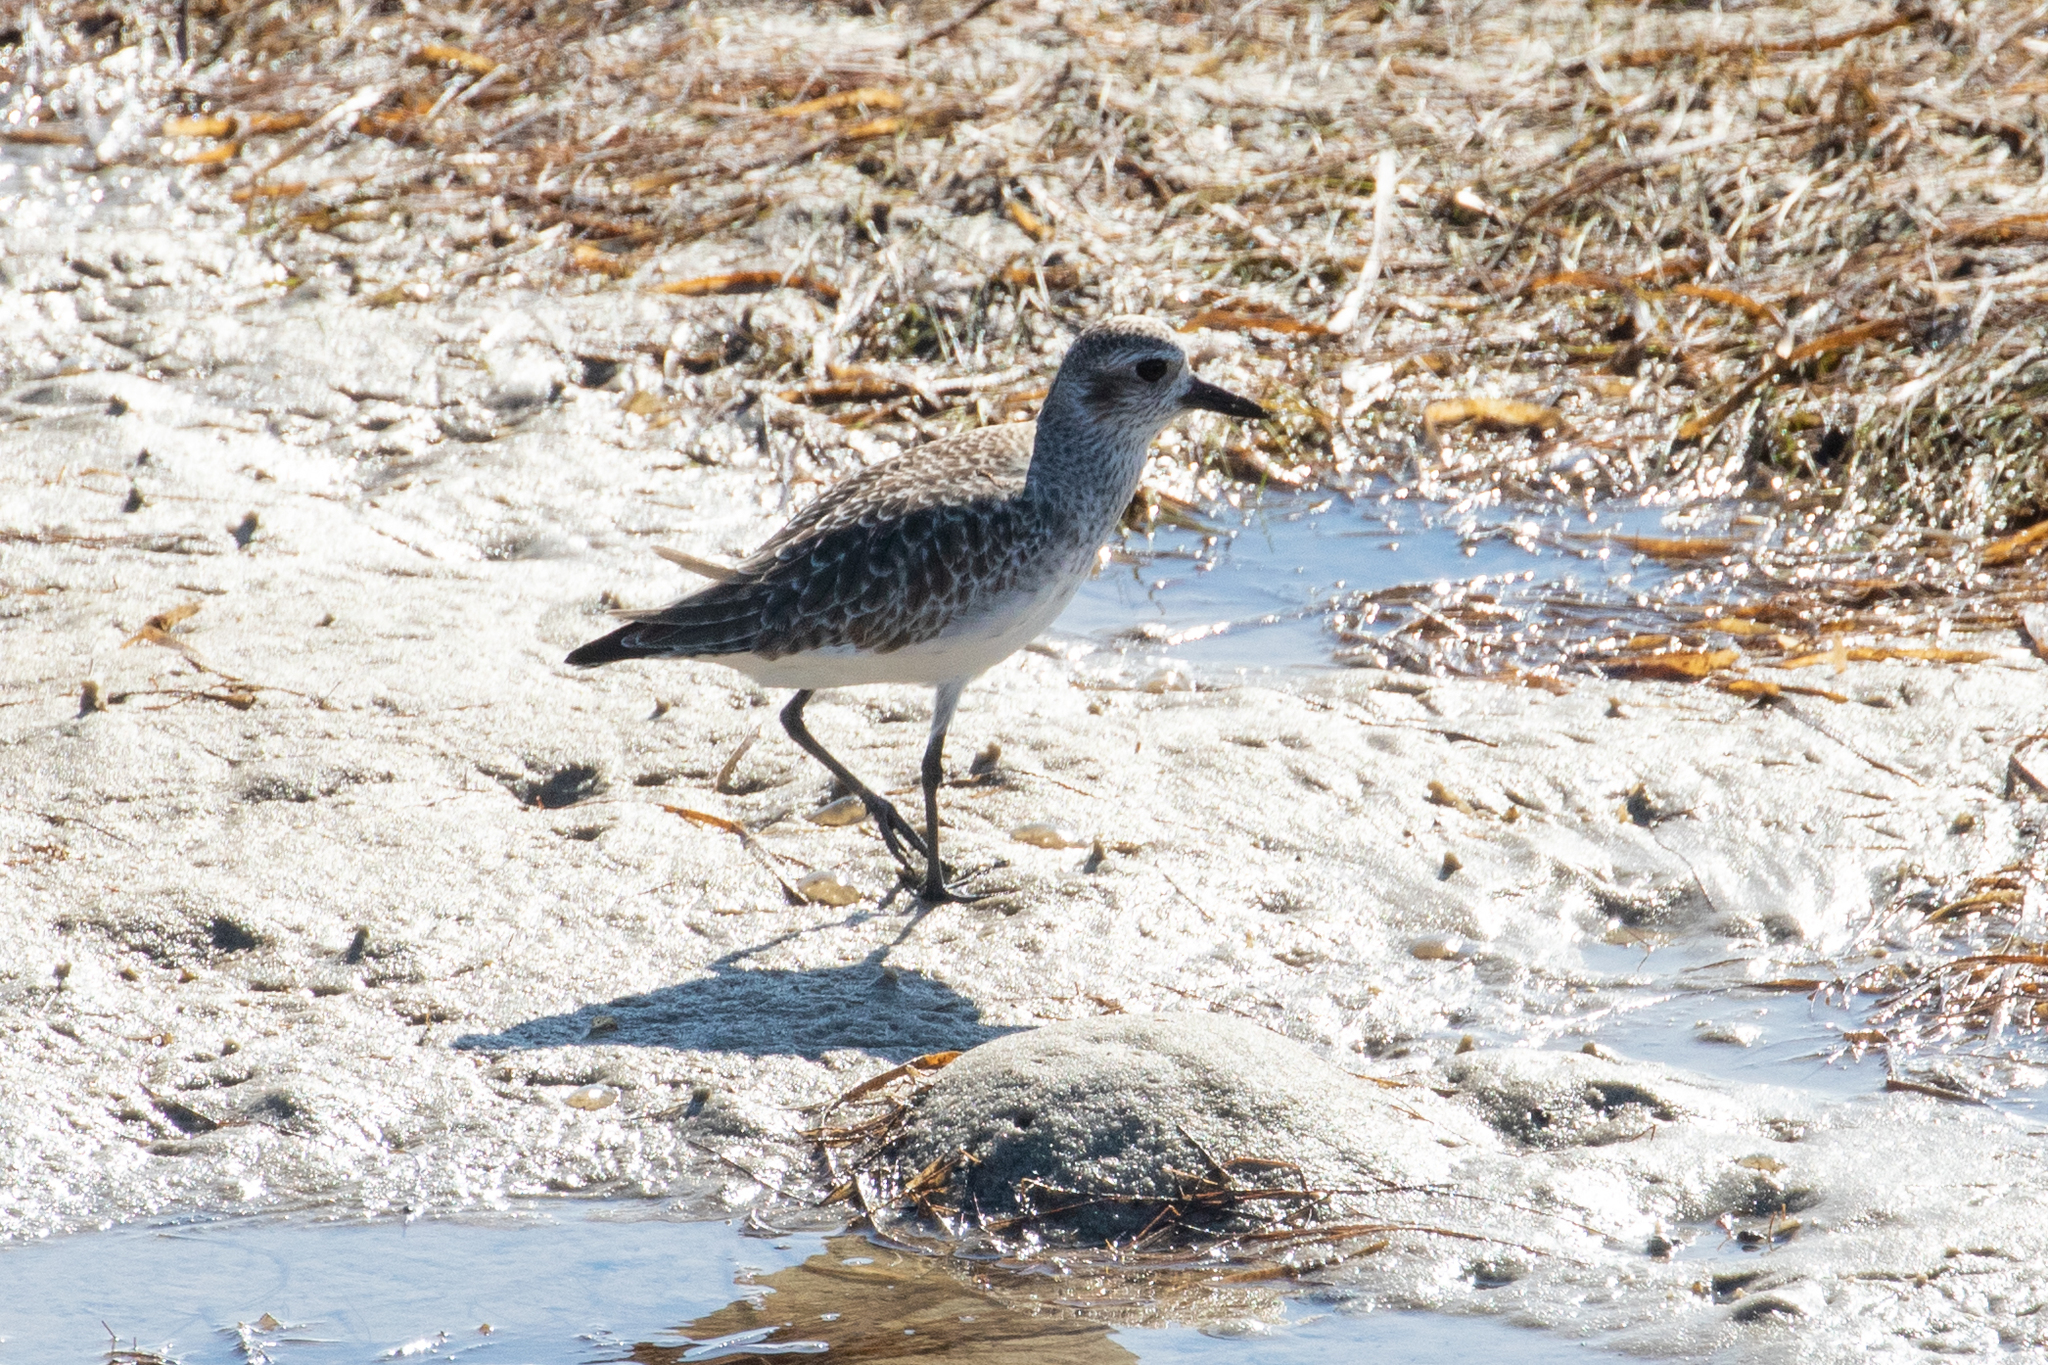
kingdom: Animalia
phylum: Chordata
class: Aves
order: Charadriiformes
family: Charadriidae
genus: Pluvialis
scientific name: Pluvialis squatarola
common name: Grey plover
